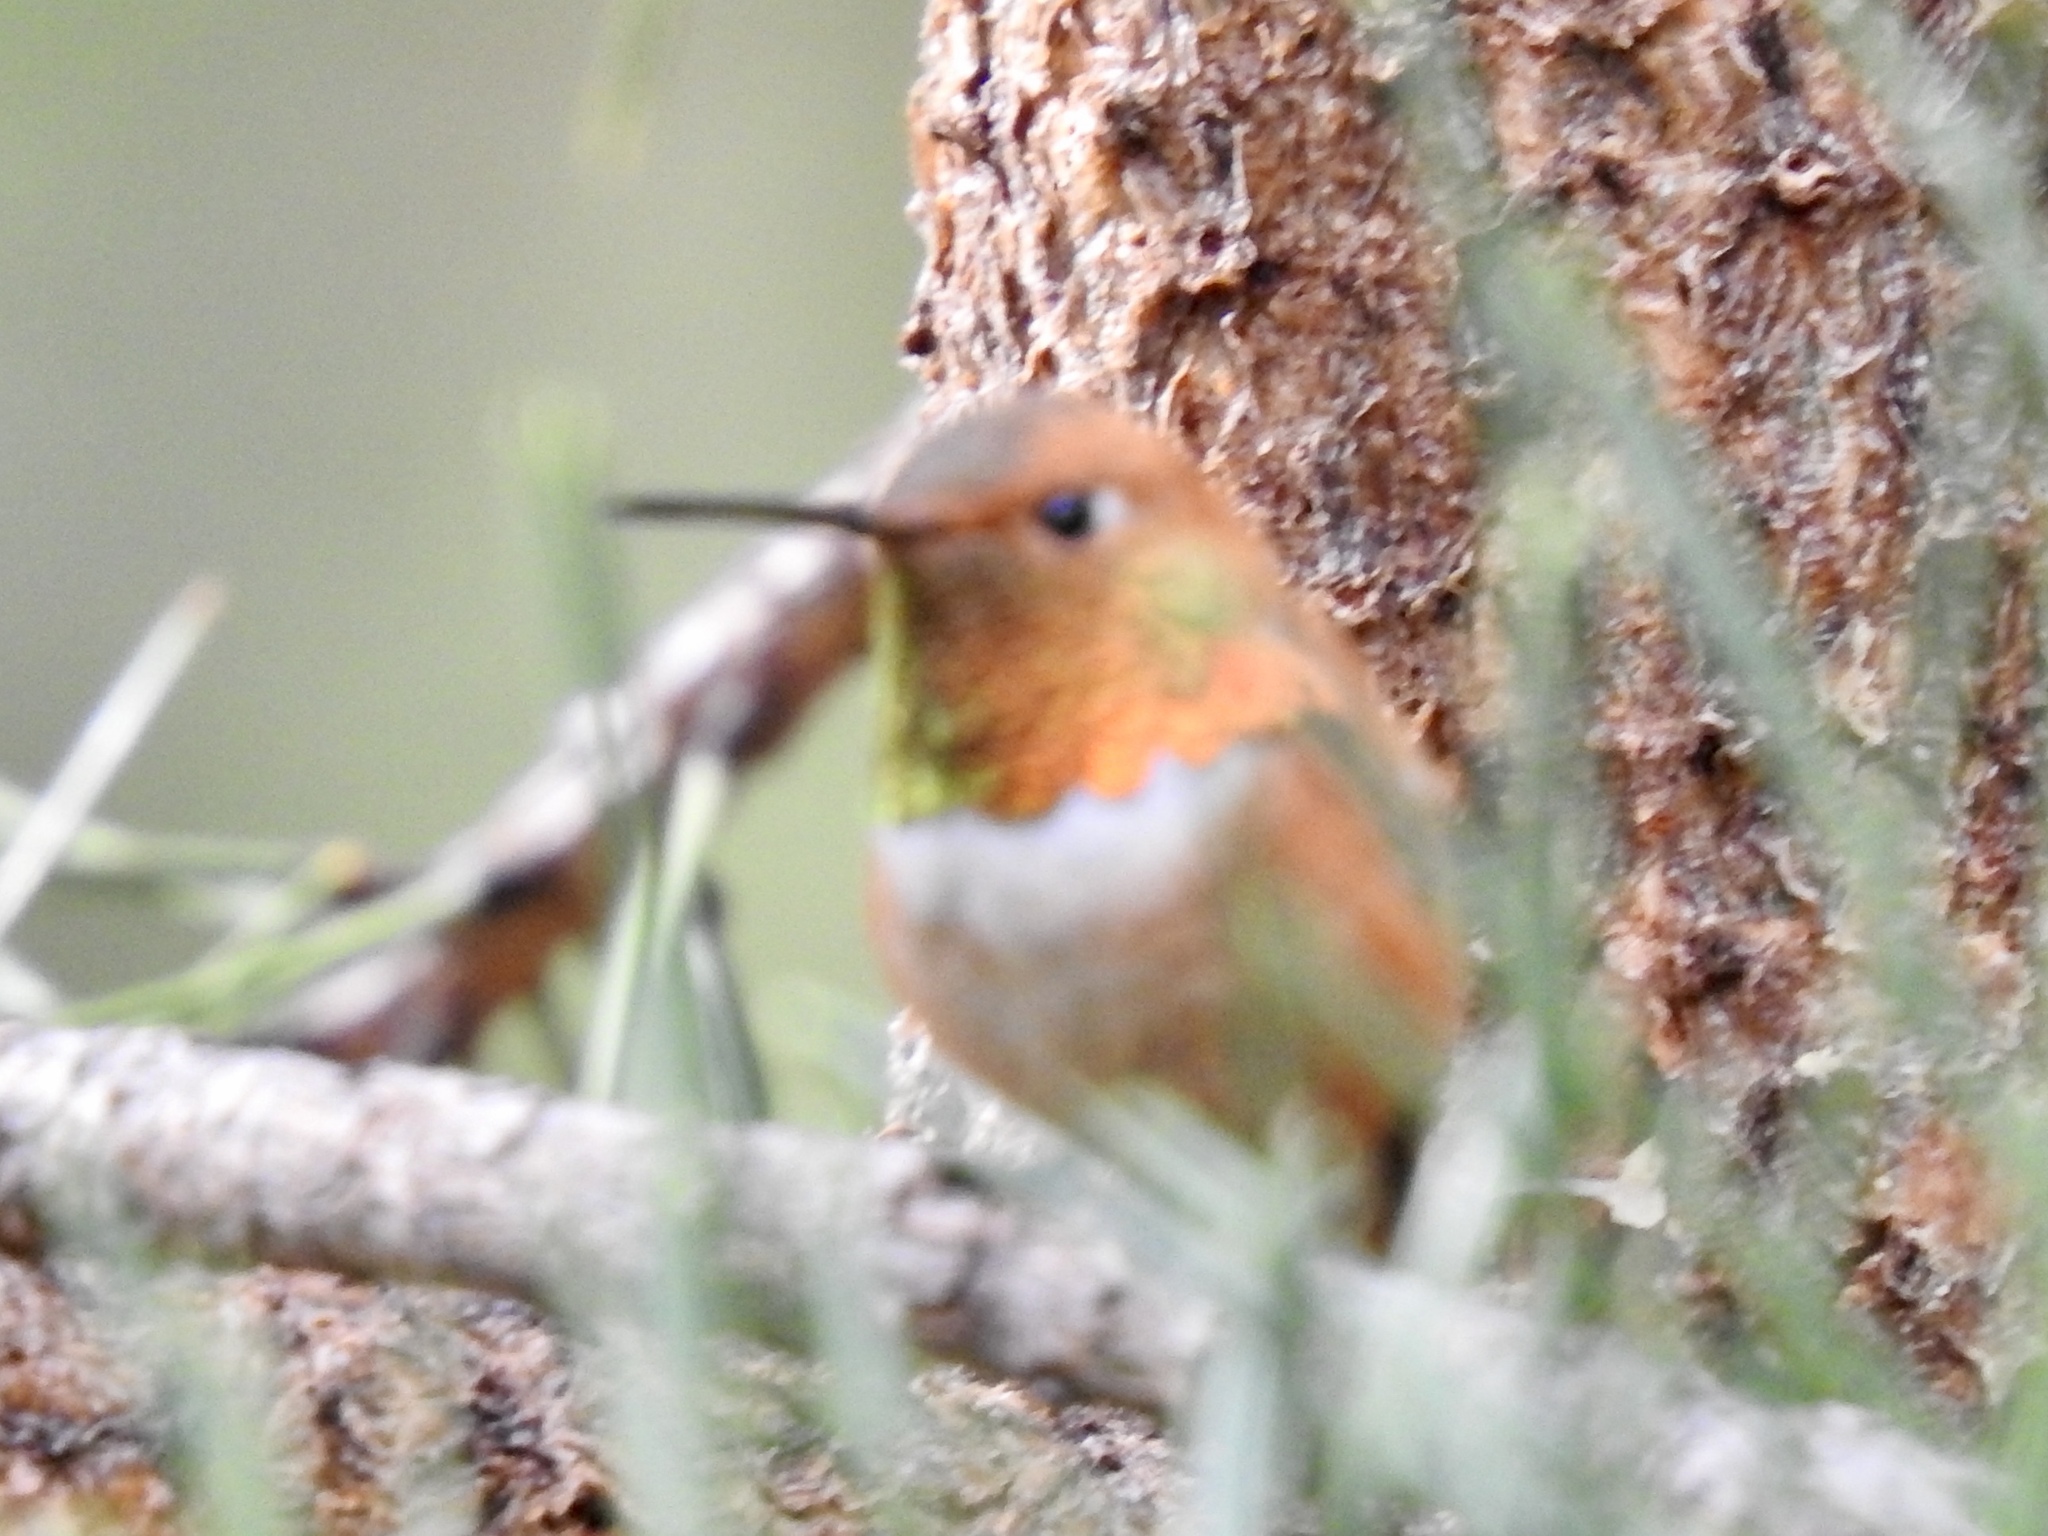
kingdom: Animalia
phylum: Chordata
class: Aves
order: Apodiformes
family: Trochilidae
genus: Selasphorus
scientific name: Selasphorus rufus
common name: Rufous hummingbird
